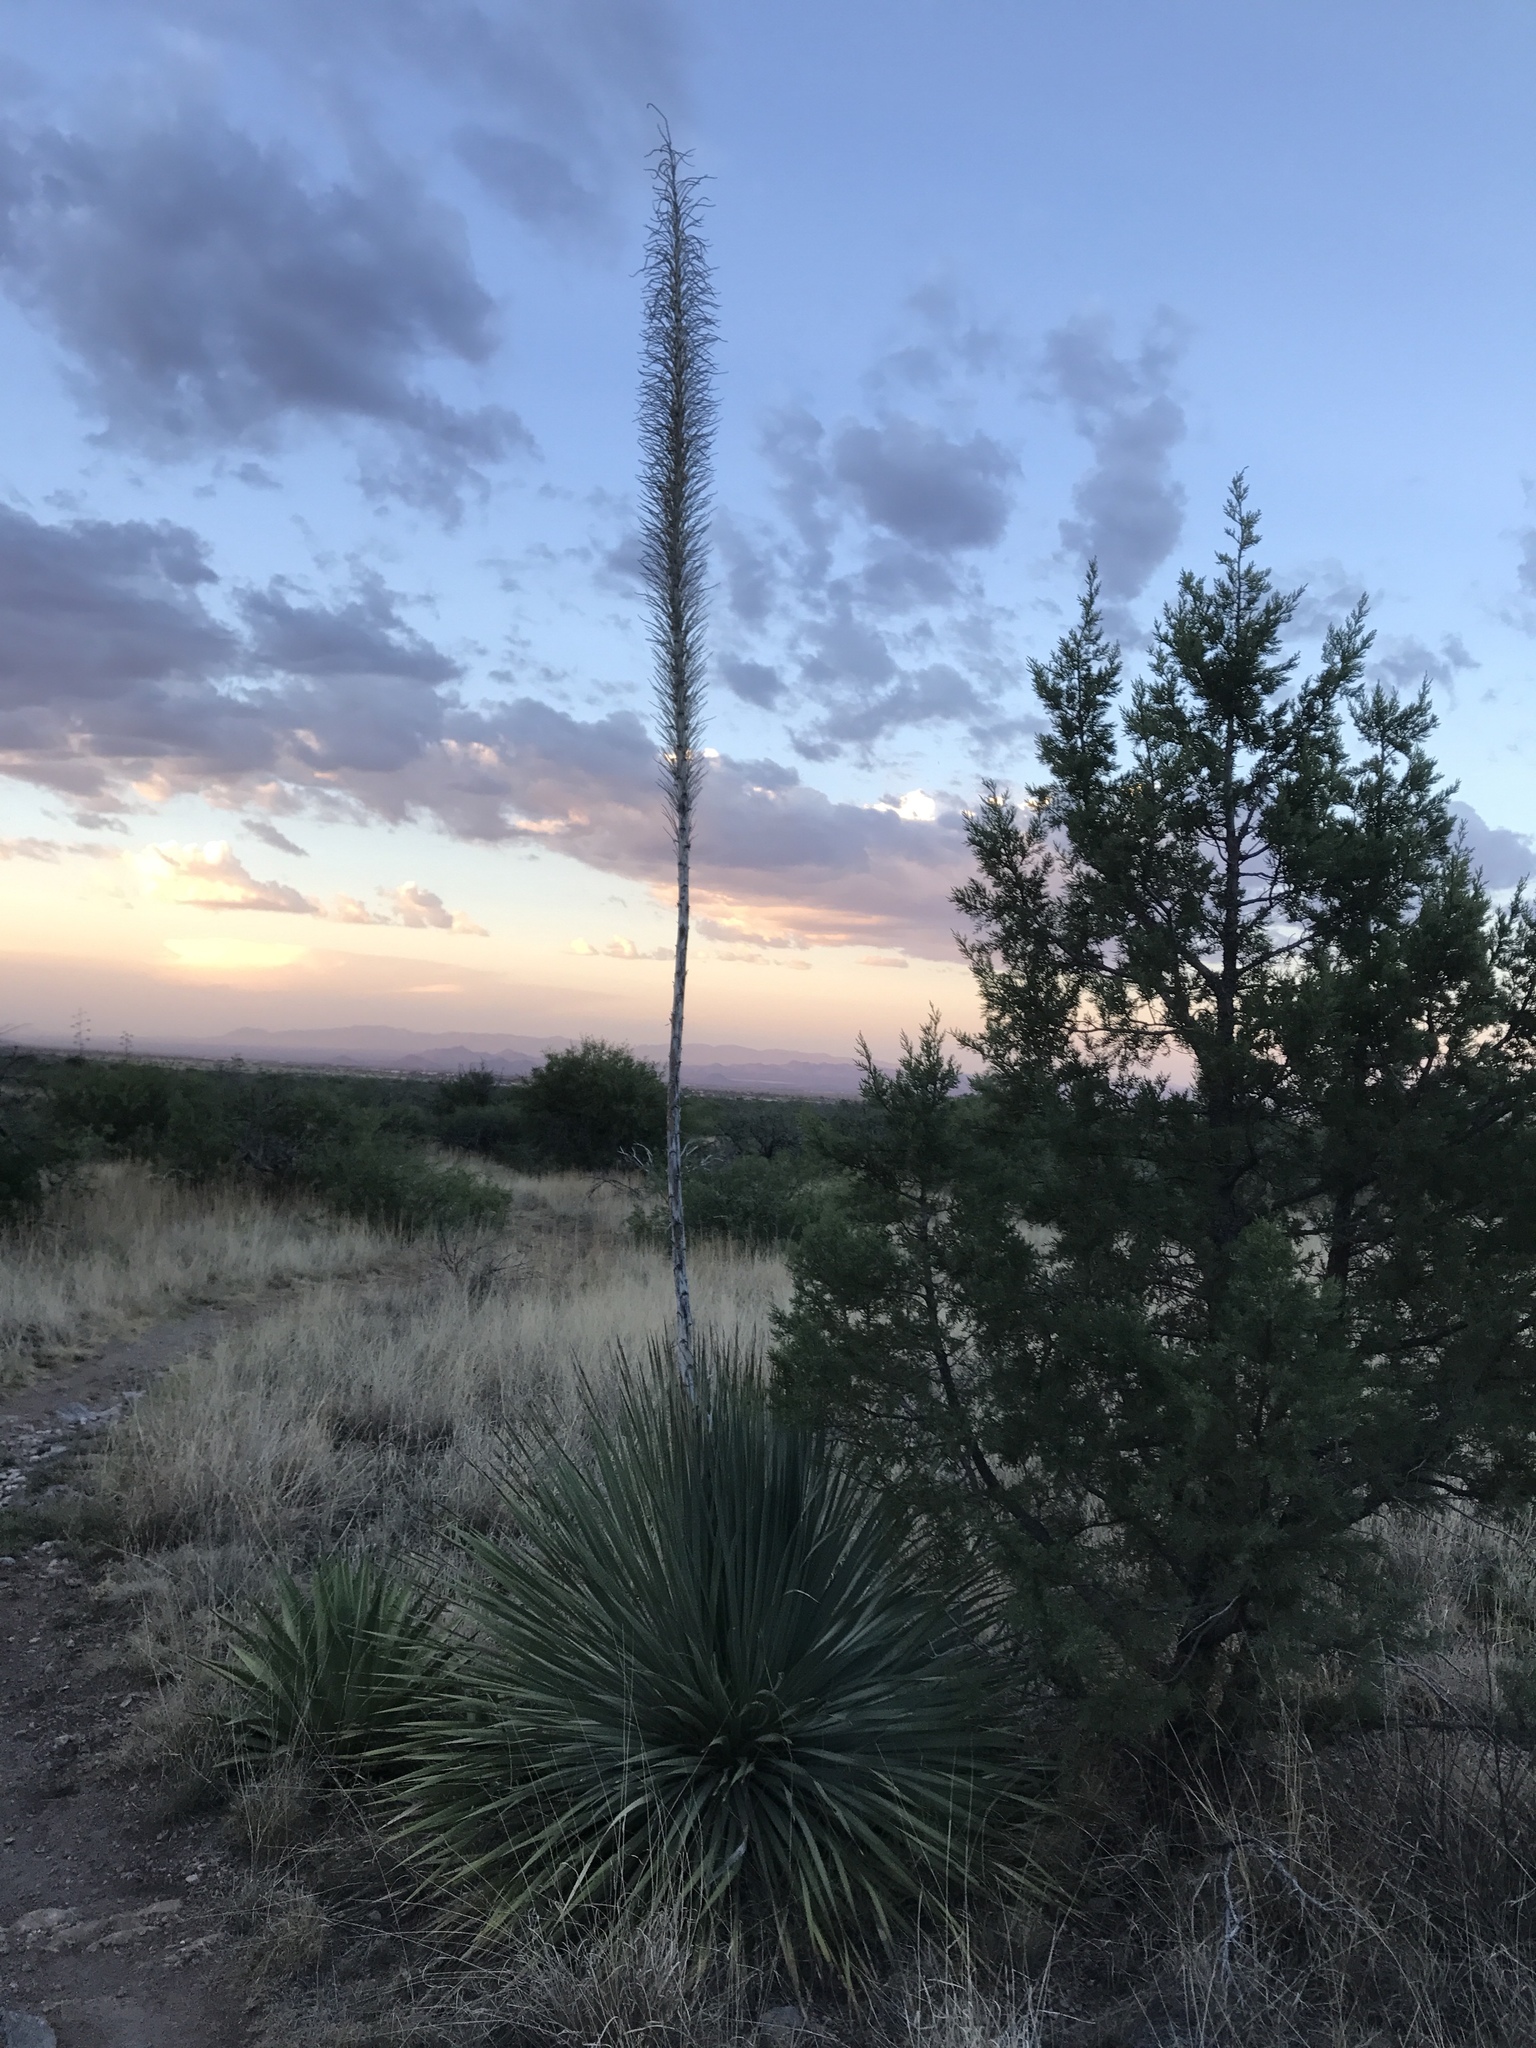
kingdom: Plantae
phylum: Tracheophyta
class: Liliopsida
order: Asparagales
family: Asparagaceae
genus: Dasylirion
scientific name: Dasylirion wheeleri
